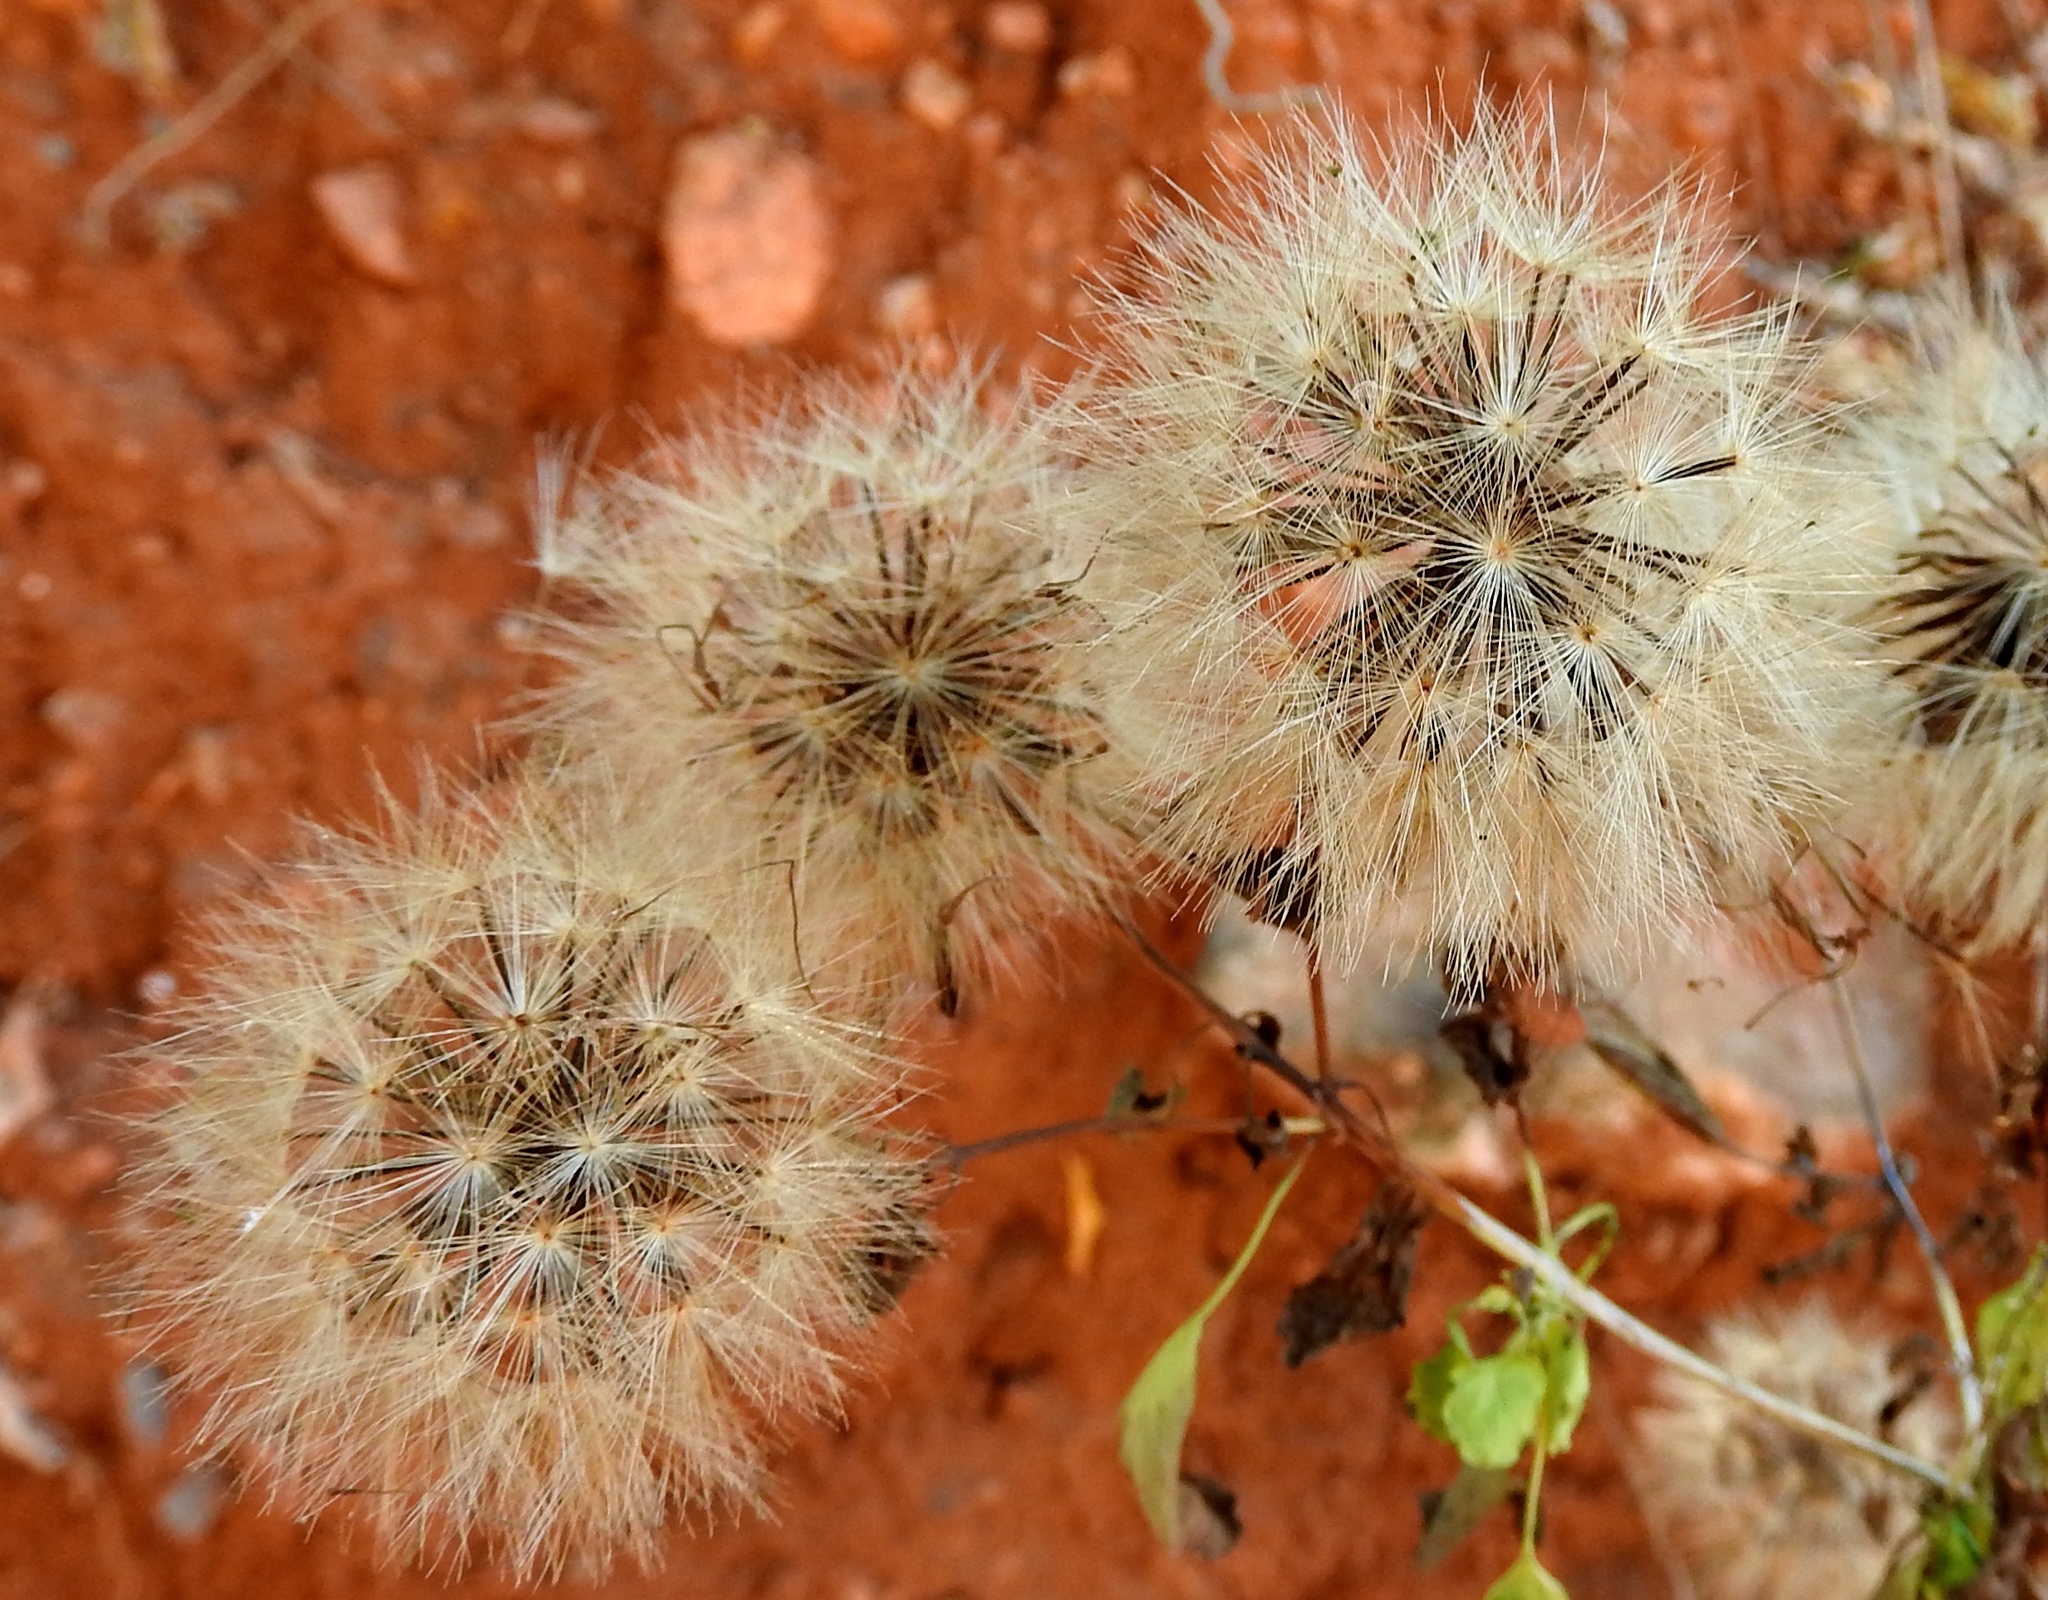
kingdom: Plantae
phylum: Tracheophyta
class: Magnoliopsida
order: Asterales
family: Asteraceae
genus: Porophyllum
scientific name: Porophyllum
